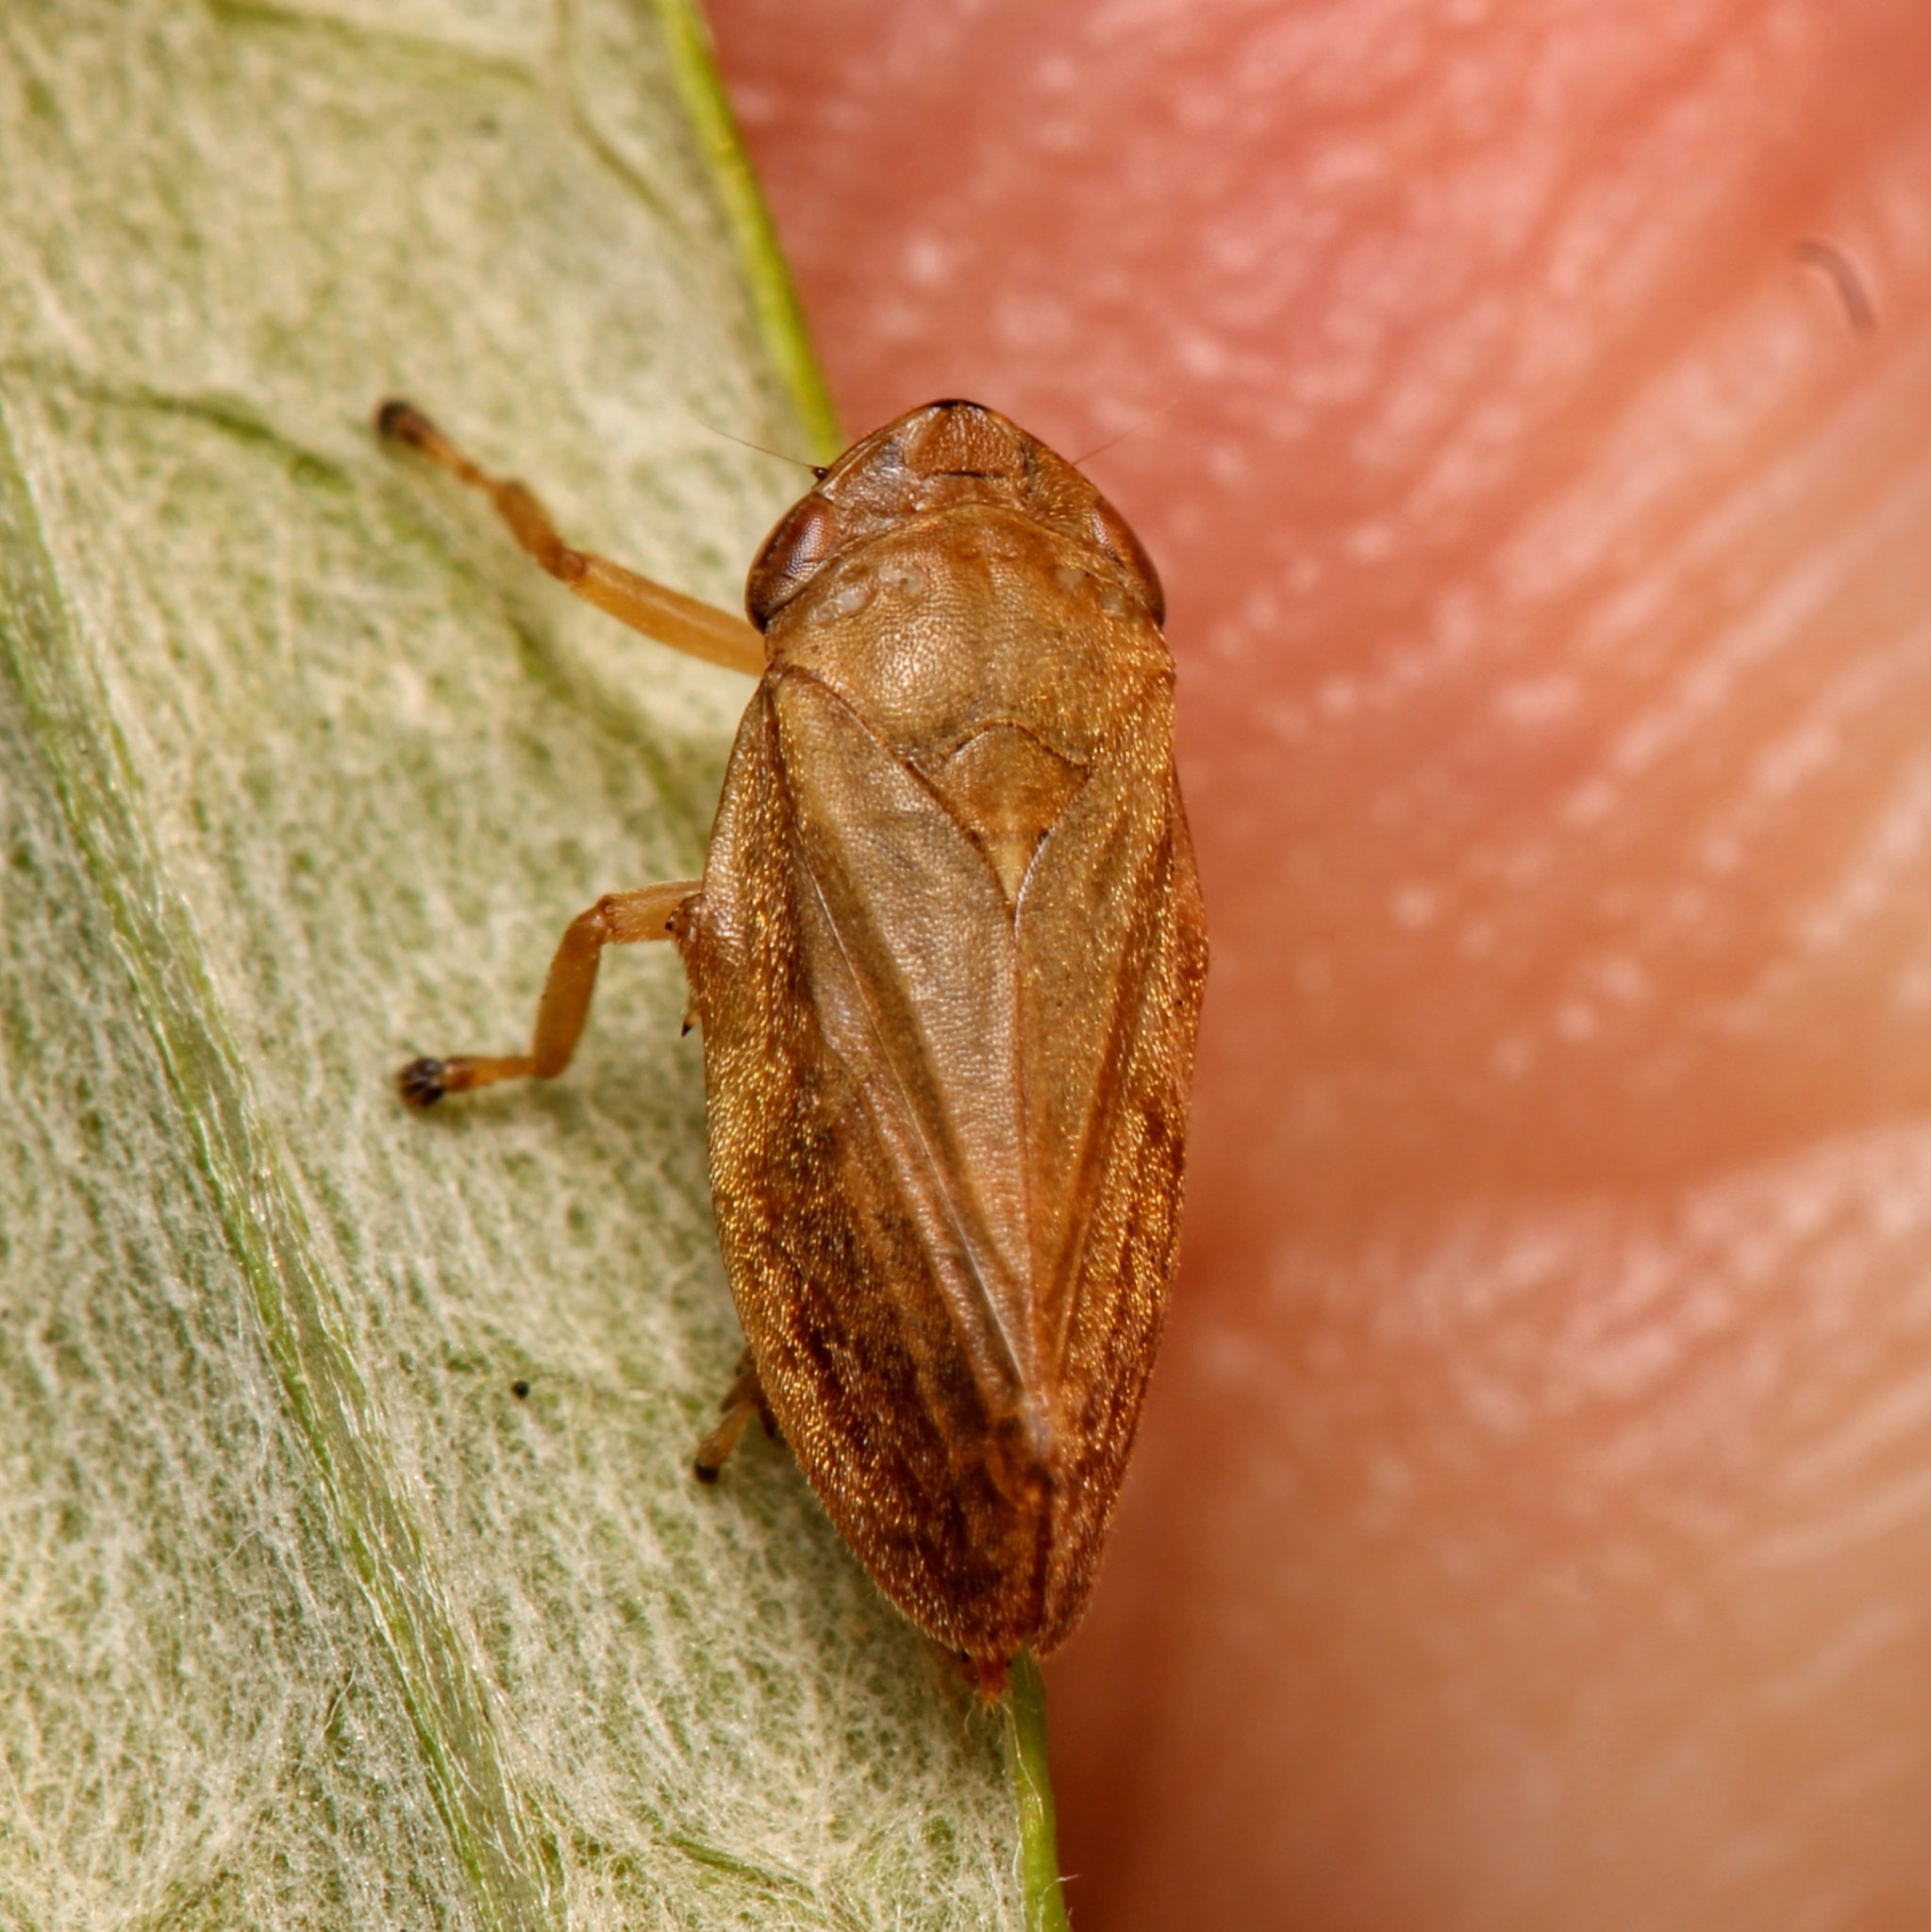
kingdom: Animalia
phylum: Arthropoda
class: Insecta
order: Hemiptera
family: Aphrophoridae
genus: Philaenus
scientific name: Philaenus spumarius
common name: Meadow spittlebug
